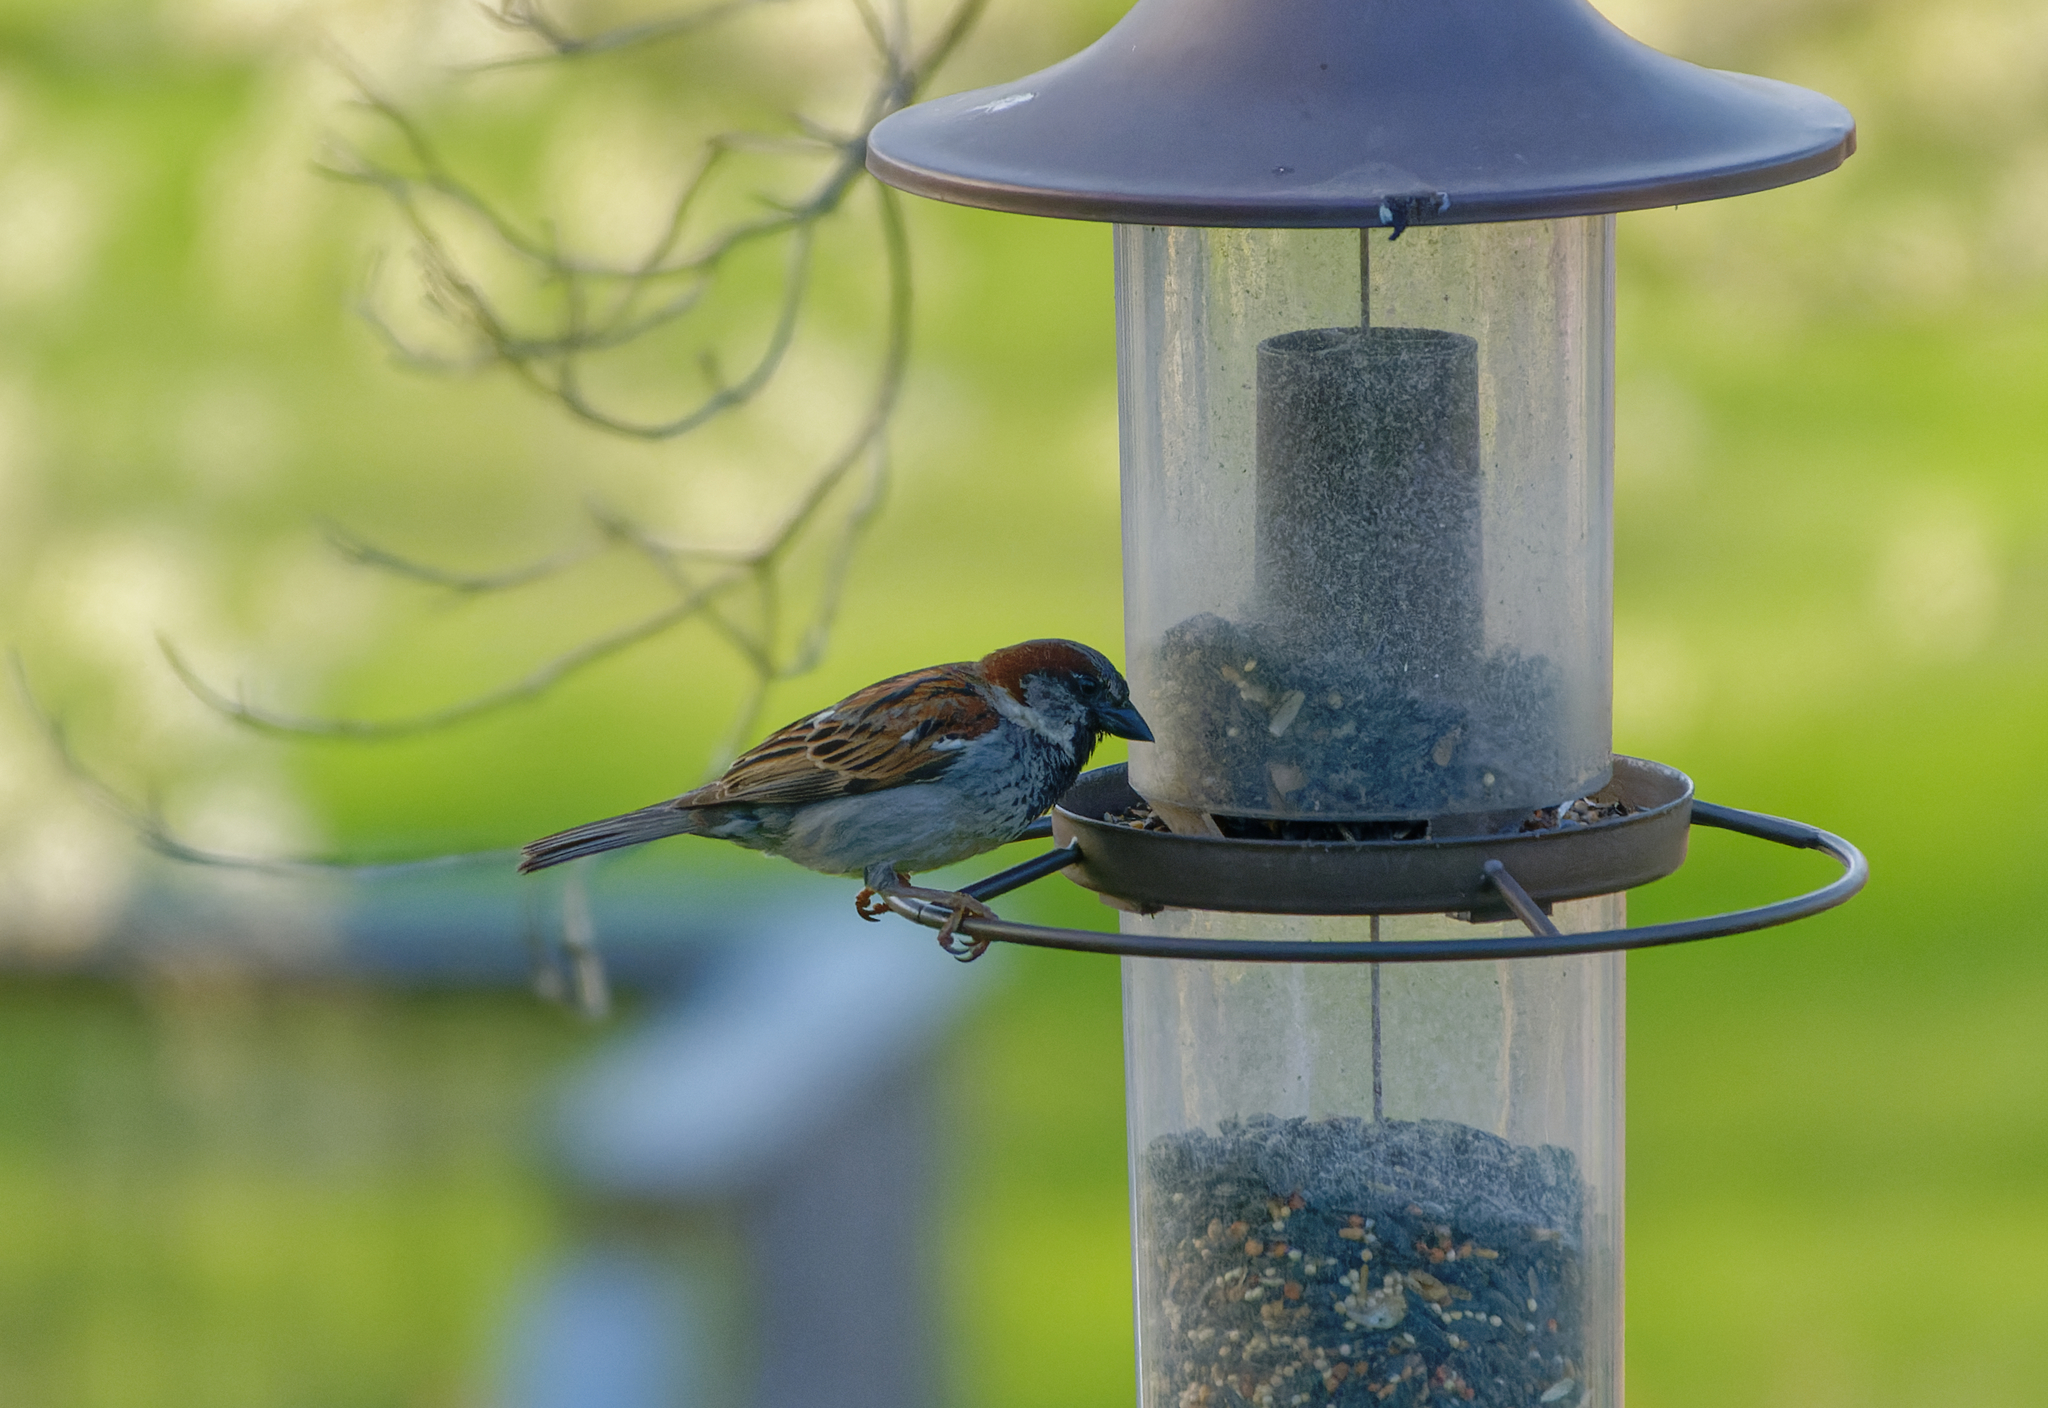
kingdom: Animalia
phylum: Chordata
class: Aves
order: Passeriformes
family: Passeridae
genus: Passer
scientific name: Passer domesticus
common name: House sparrow
